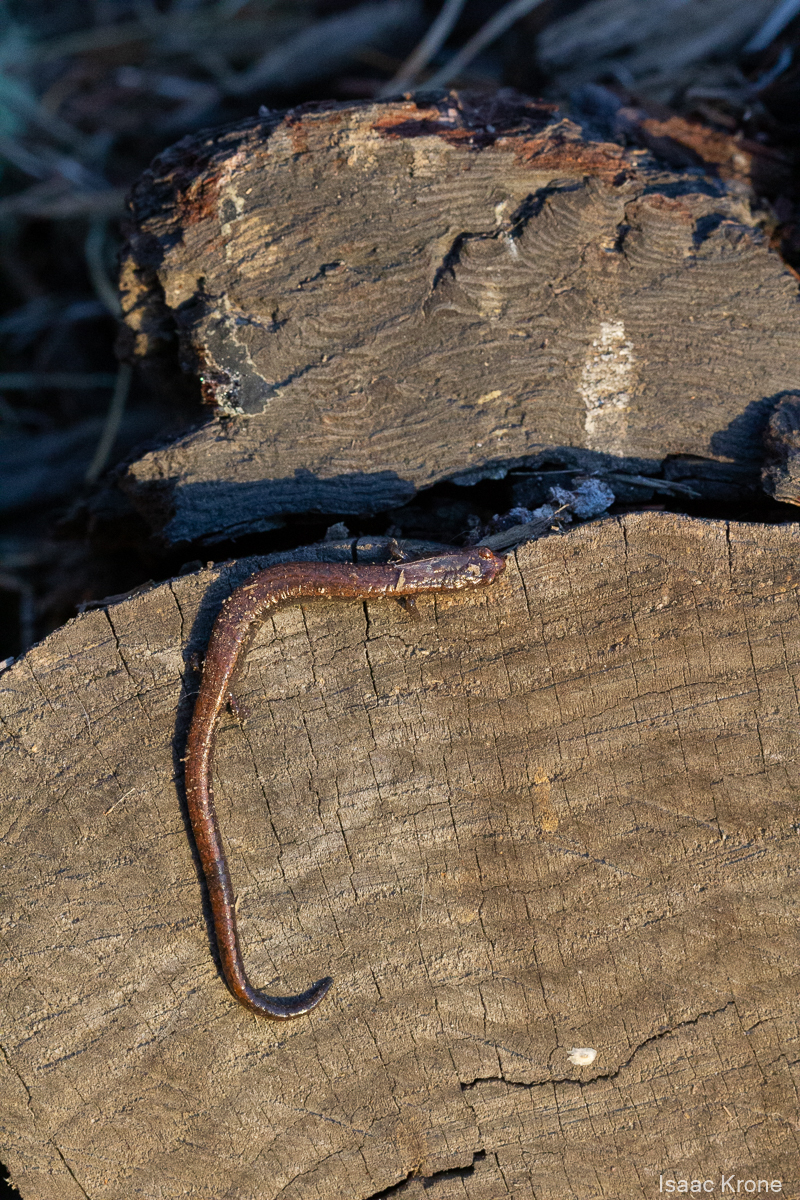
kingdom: Animalia
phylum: Chordata
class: Amphibia
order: Caudata
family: Plethodontidae
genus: Batrachoseps
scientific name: Batrachoseps attenuatus
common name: California slender salamander
